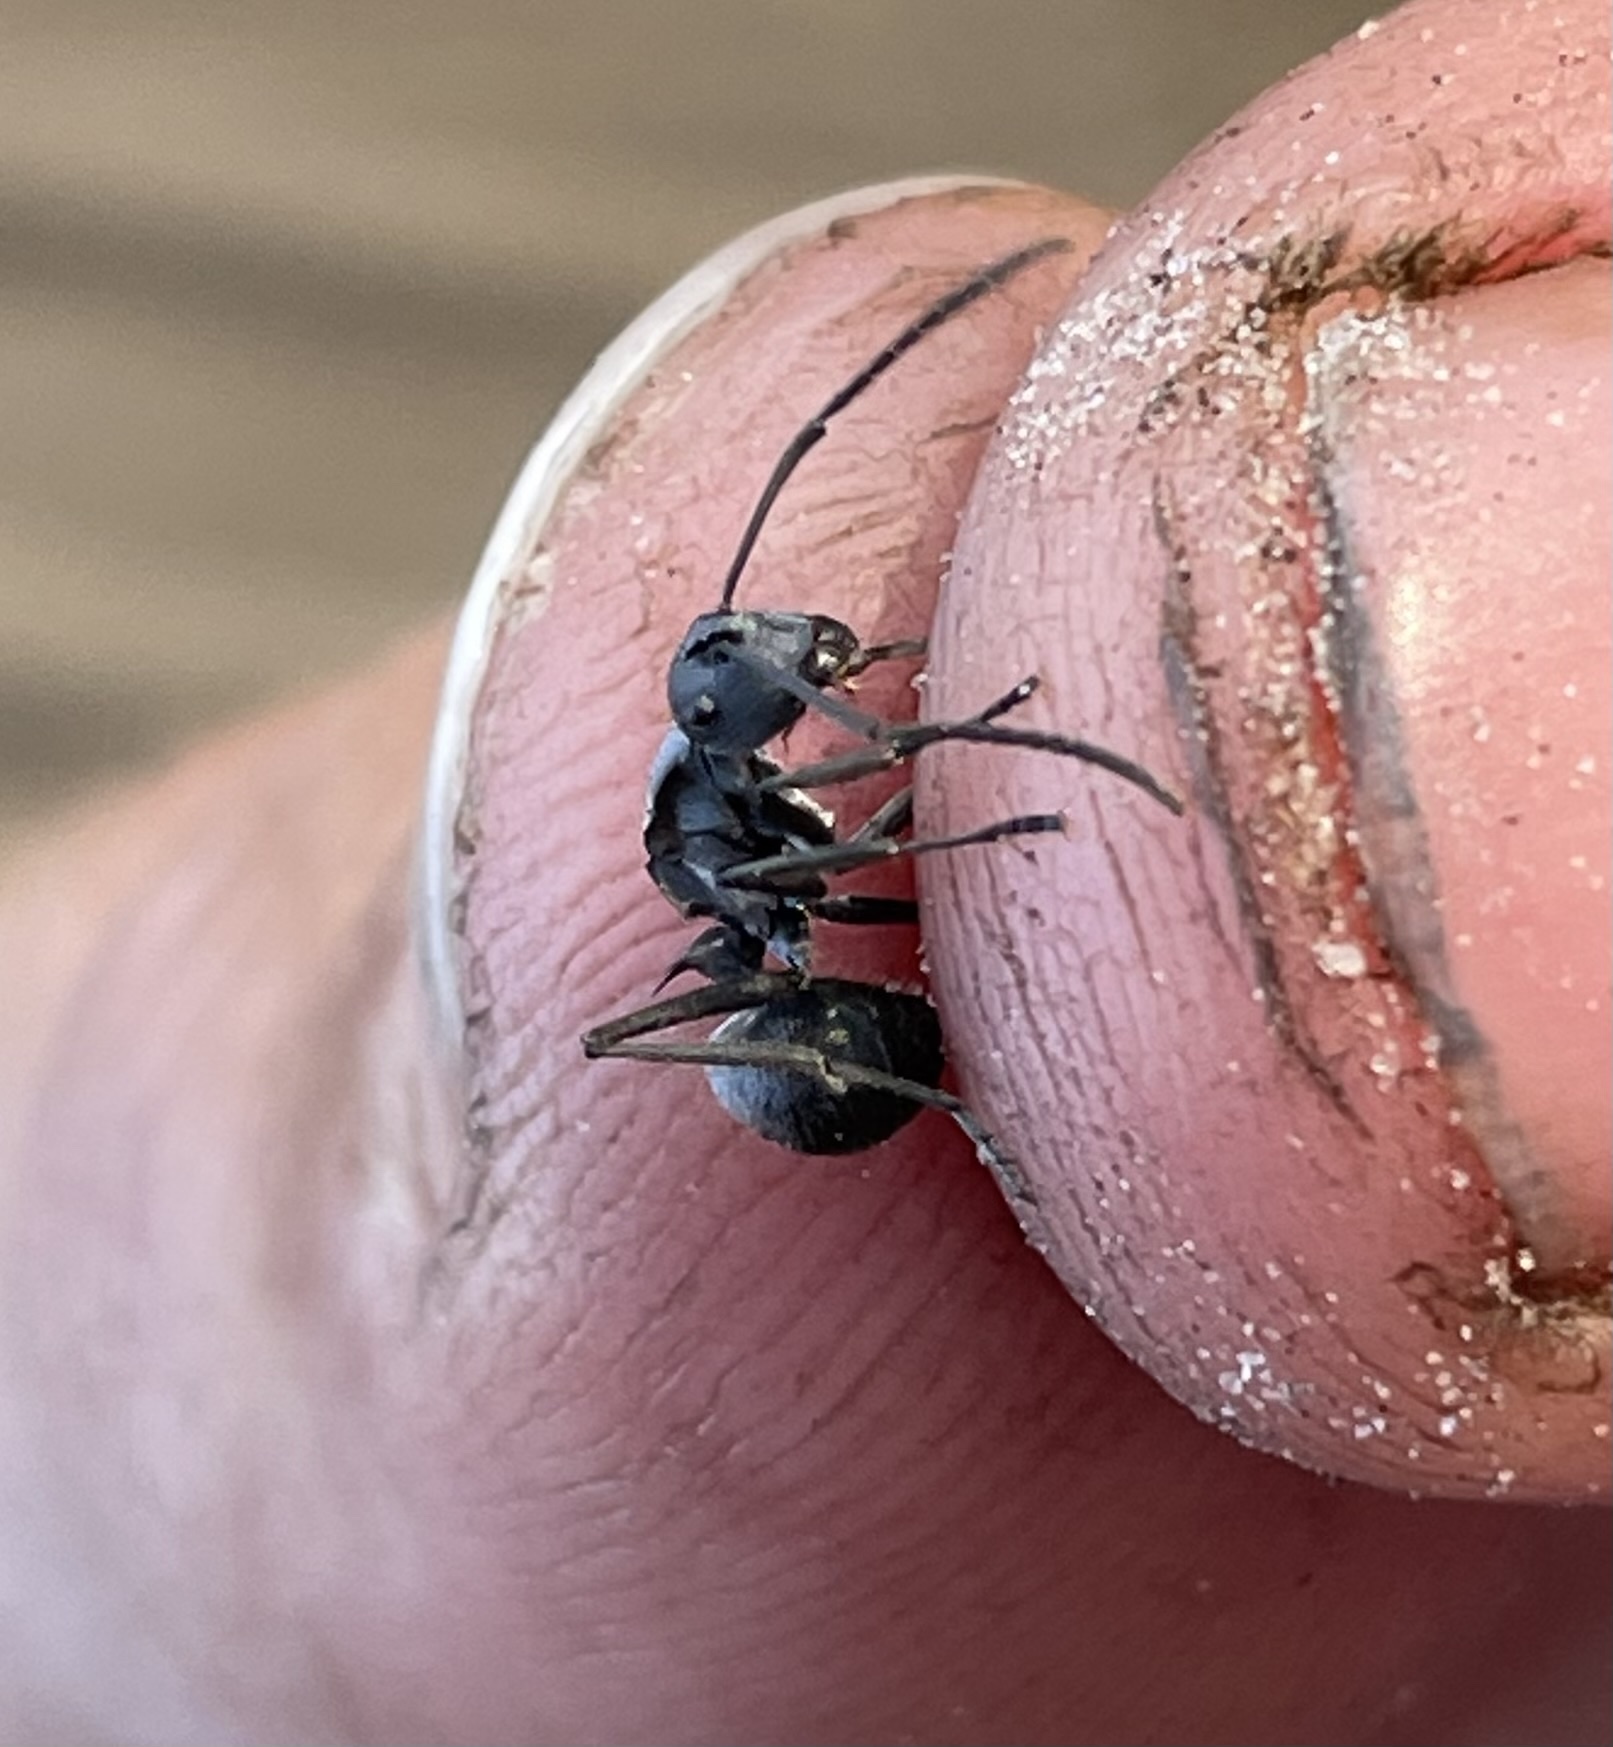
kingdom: Animalia
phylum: Arthropoda
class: Insecta
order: Hymenoptera
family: Formicidae
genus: Polyrhachis
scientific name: Polyrhachis wellmani
